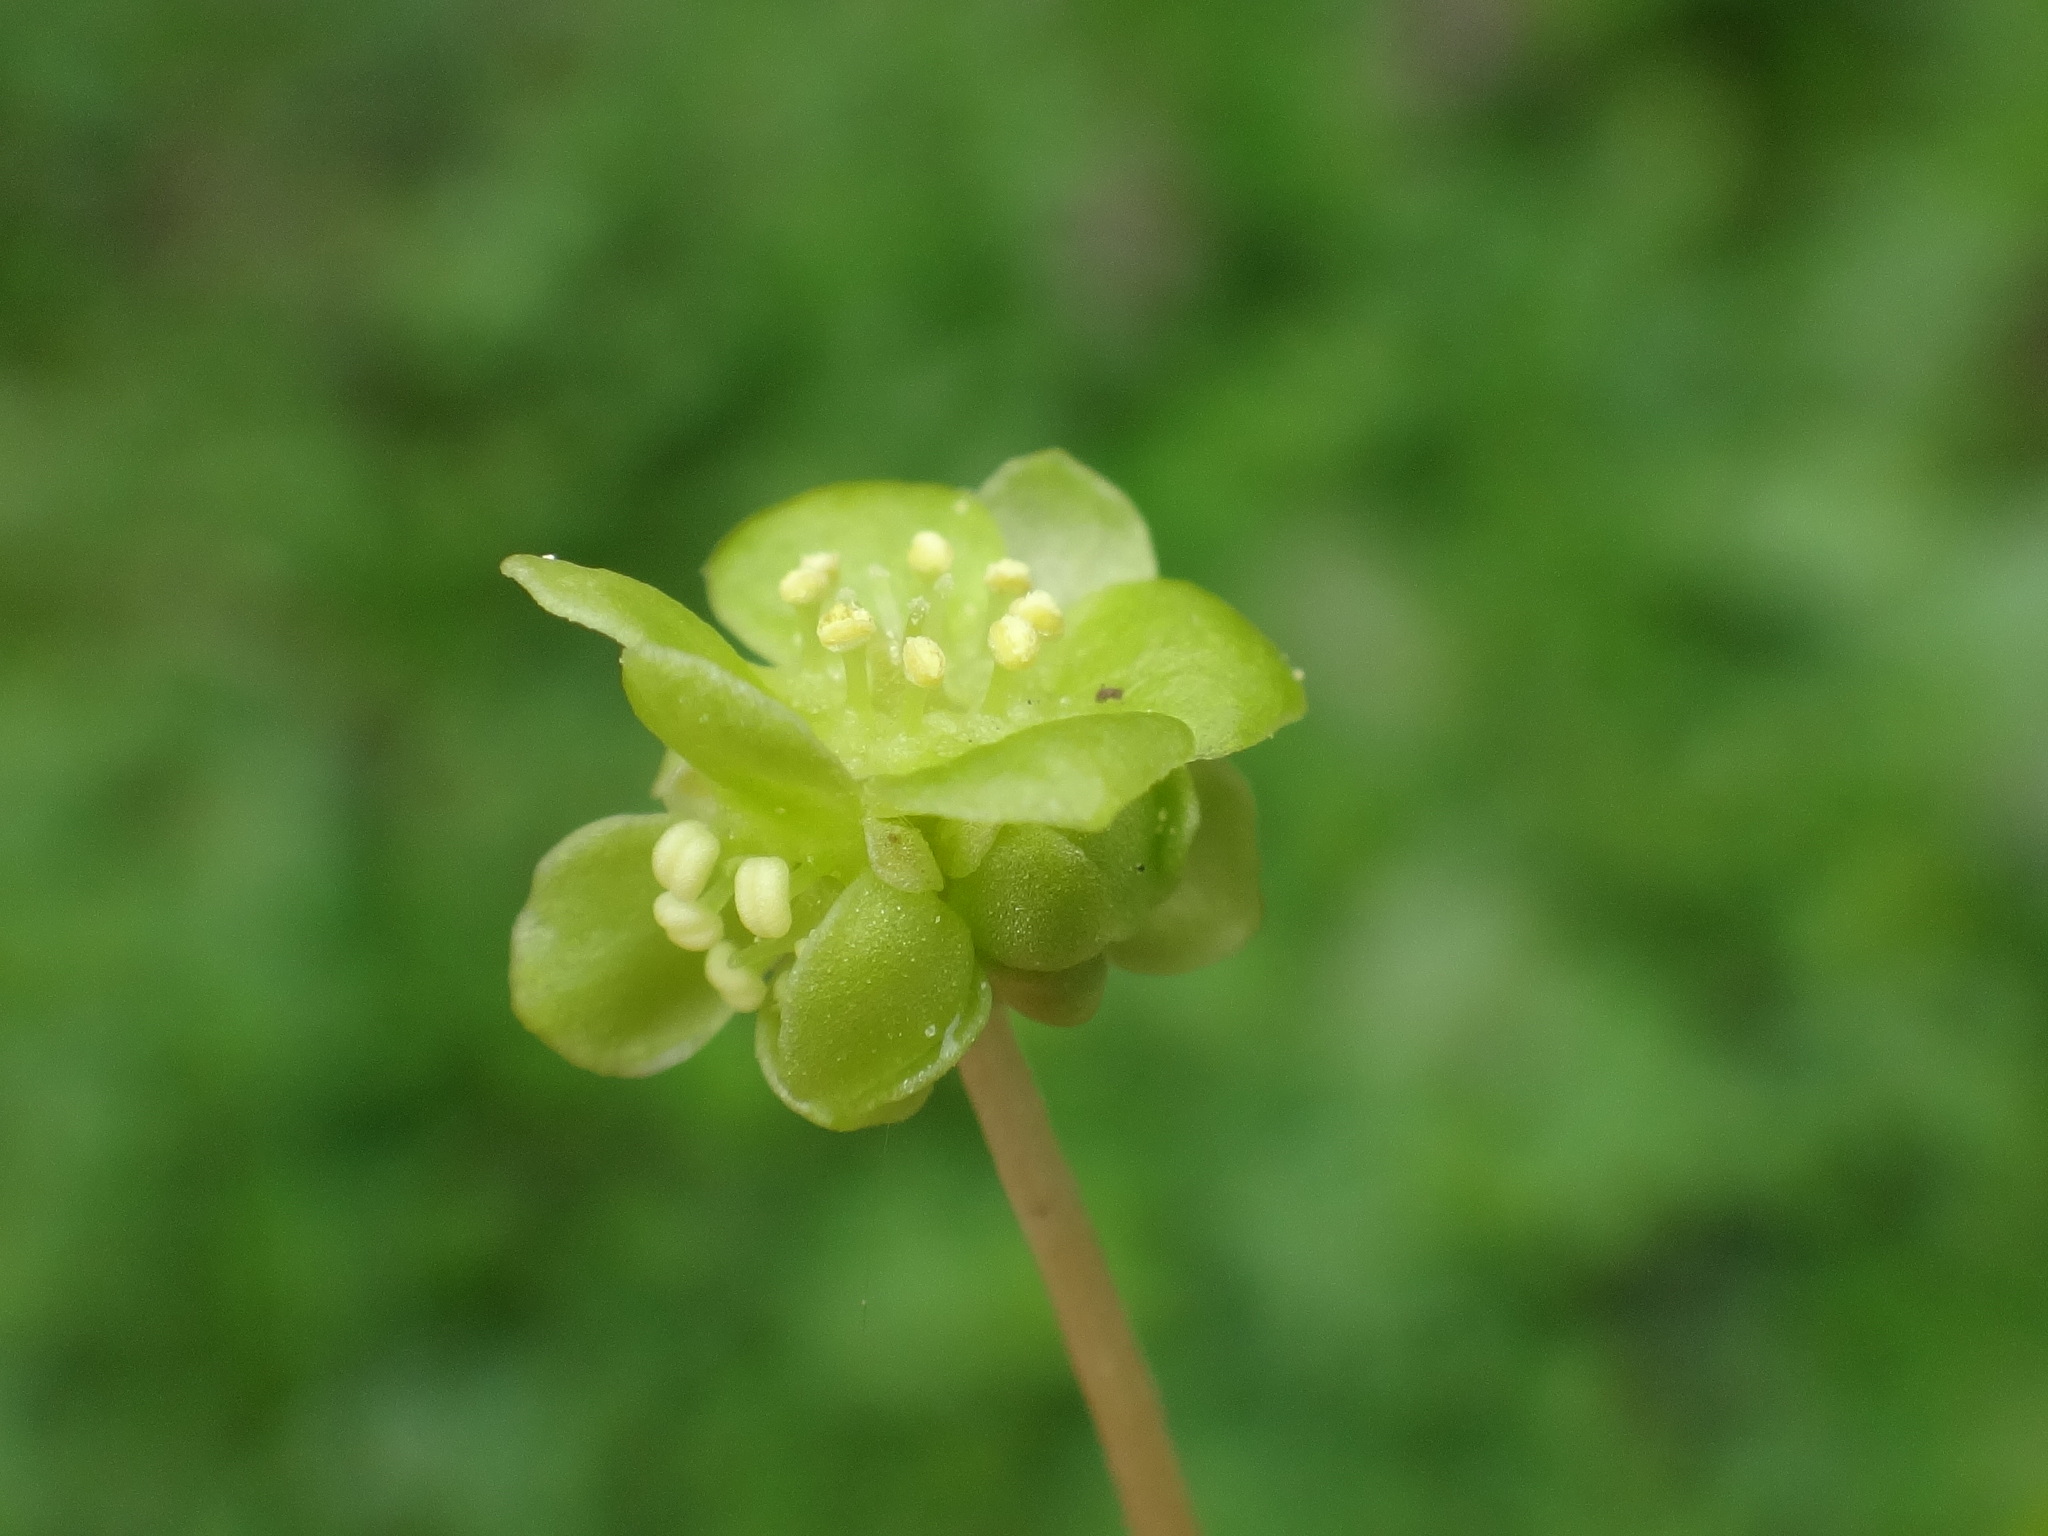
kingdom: Plantae
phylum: Tracheophyta
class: Magnoliopsida
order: Dipsacales
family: Viburnaceae
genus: Adoxa
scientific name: Adoxa moschatellina
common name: Moschatel
